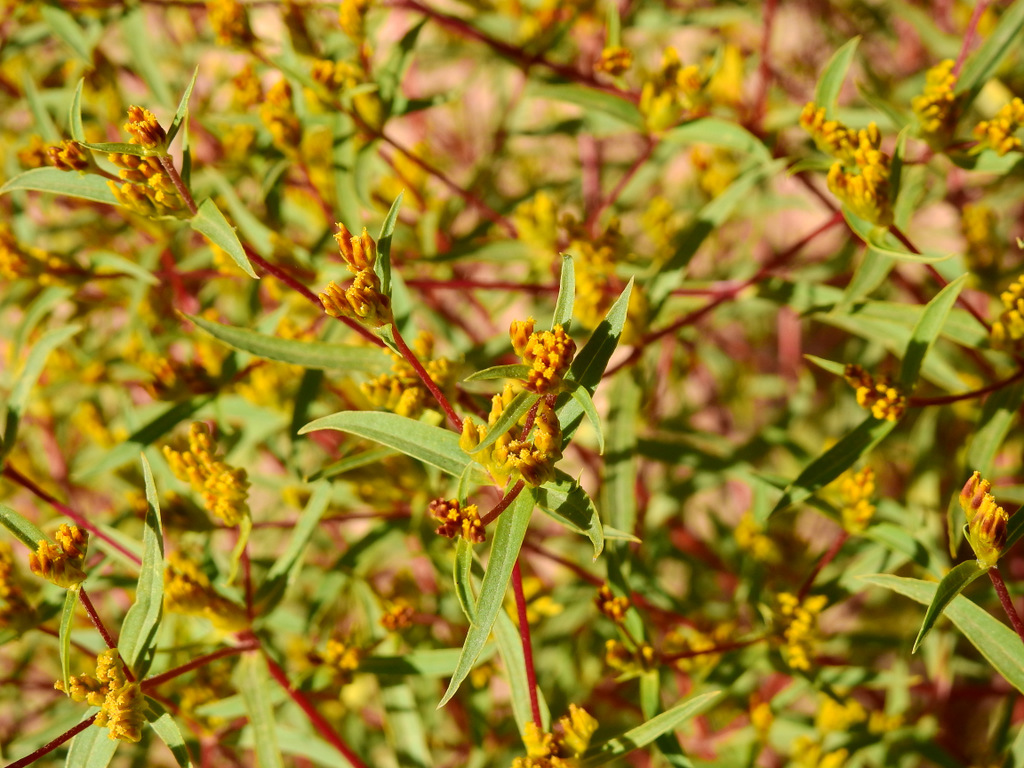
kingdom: Plantae
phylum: Tracheophyta
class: Magnoliopsida
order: Asterales
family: Asteraceae
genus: Flaveria
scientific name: Flaveria bidentis
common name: Coastal plain yellowtops
